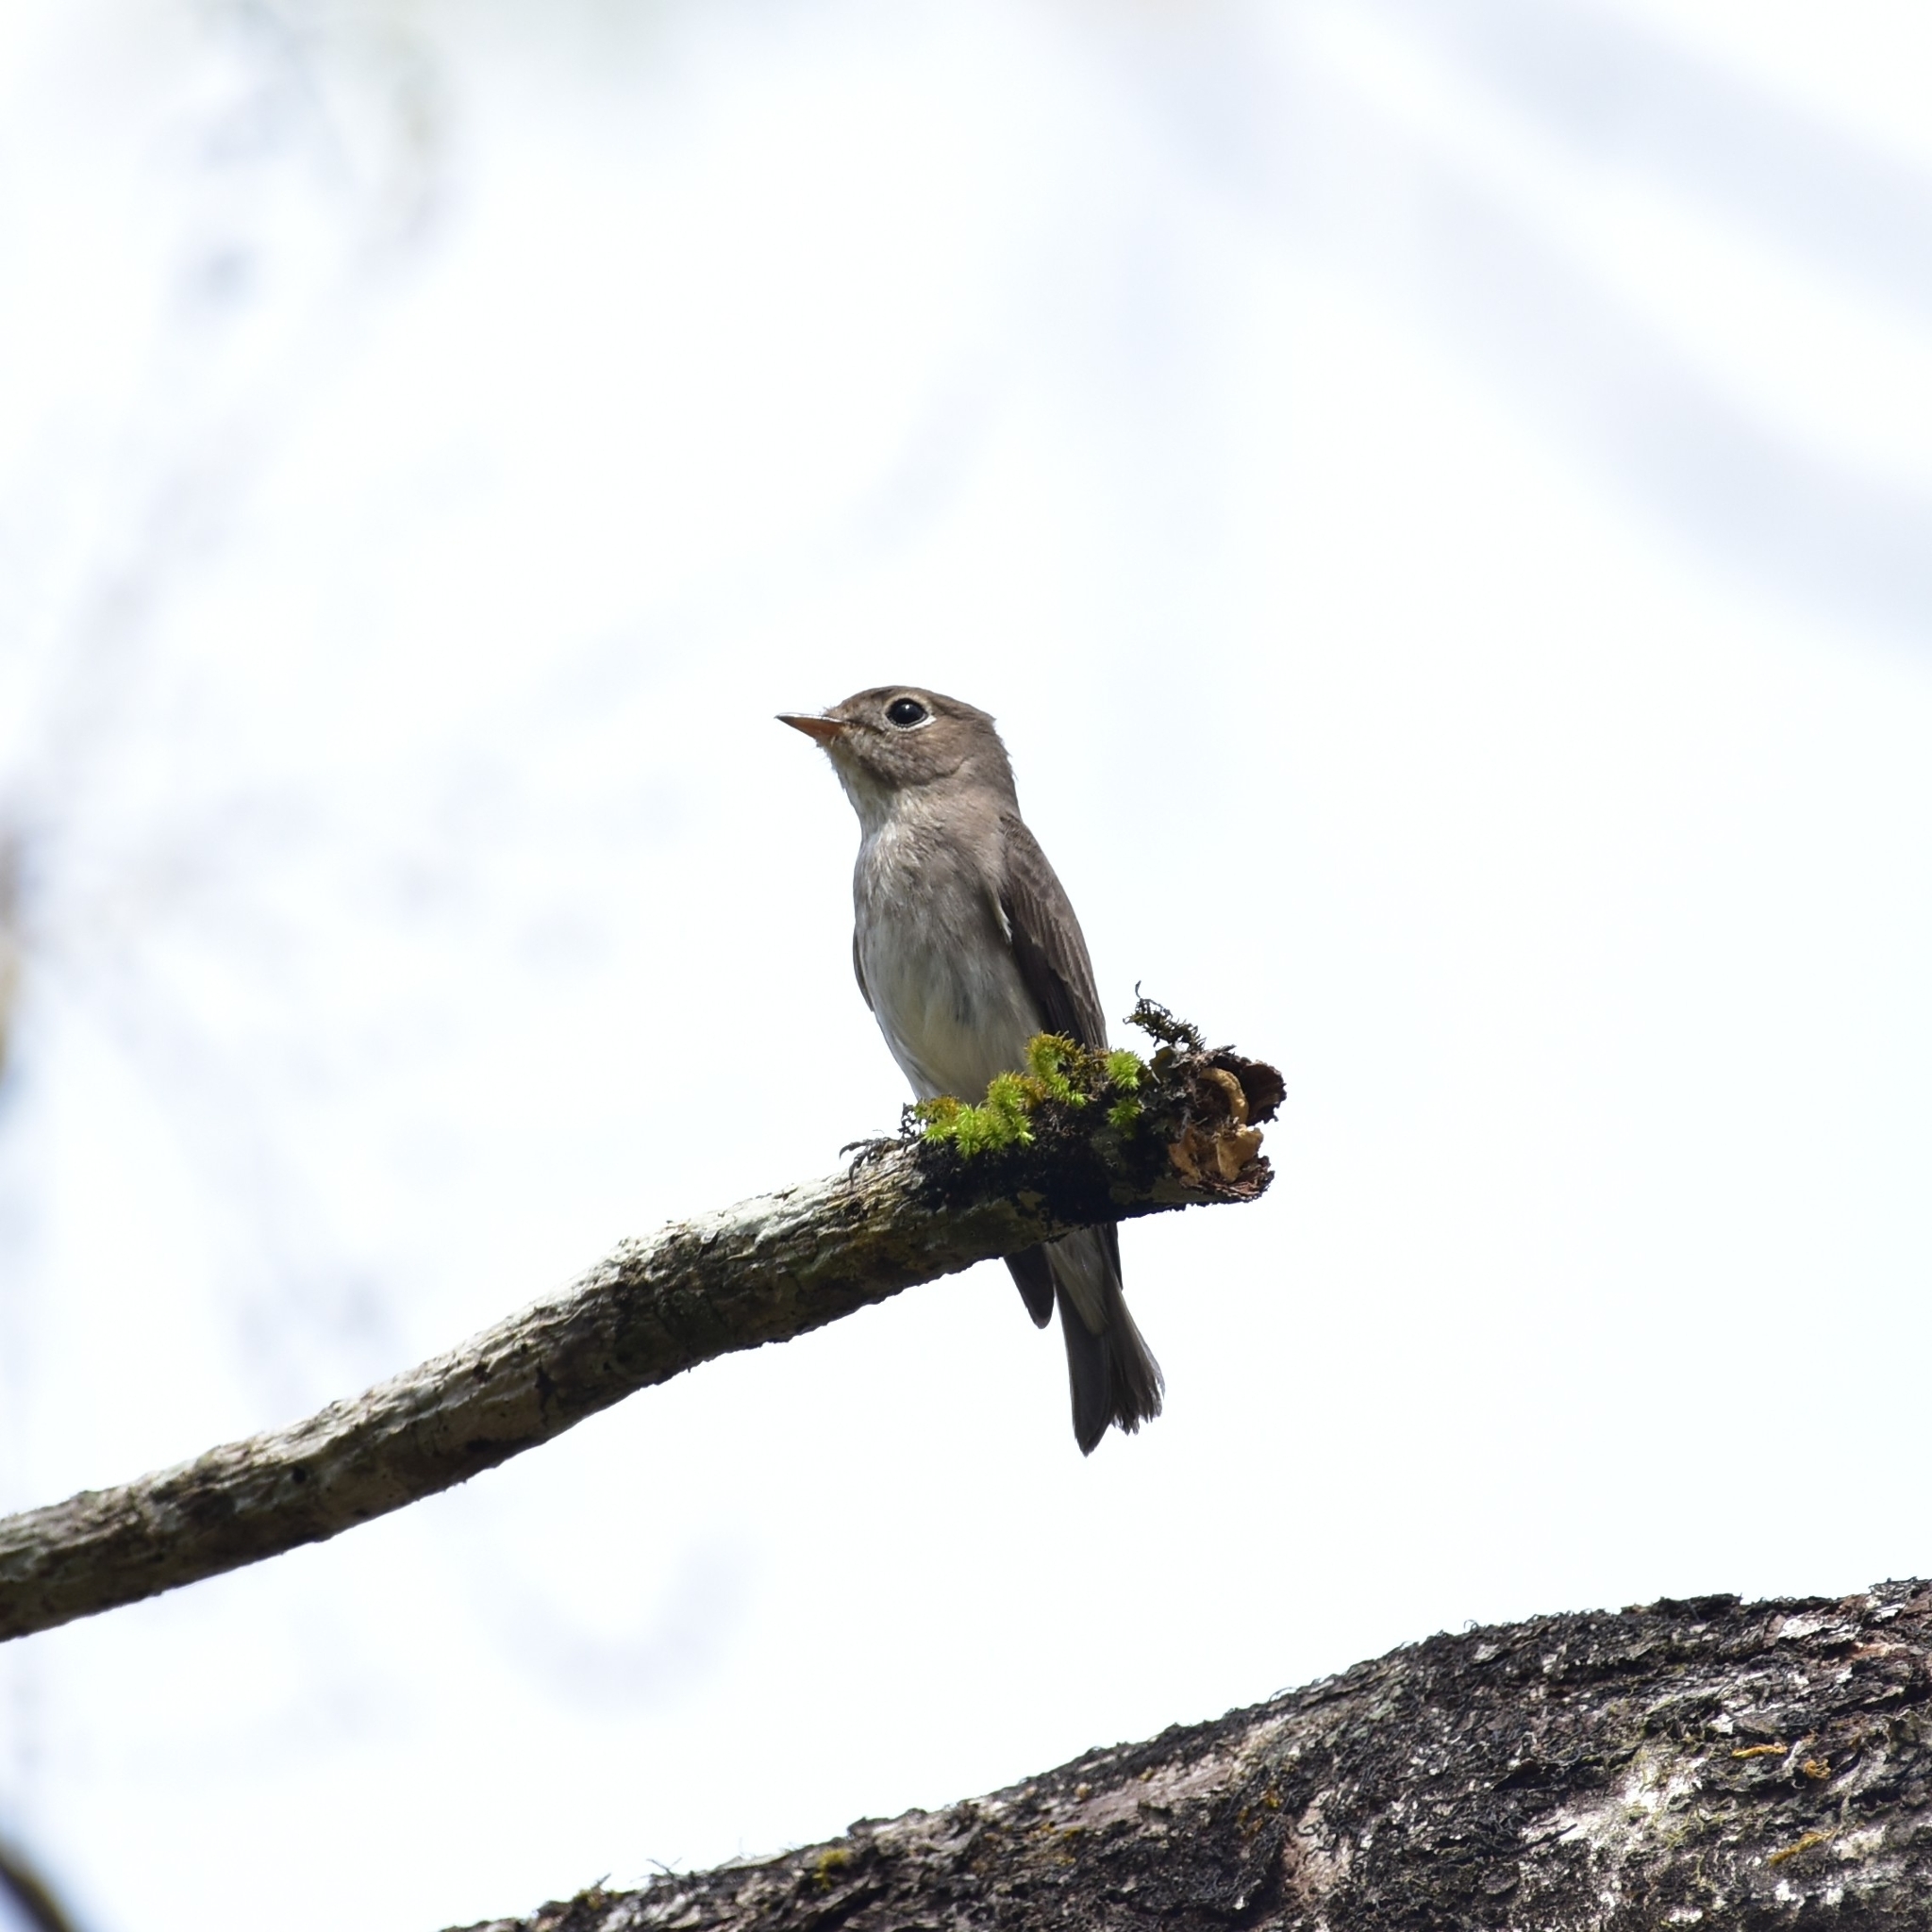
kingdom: Animalia
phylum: Chordata
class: Aves
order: Passeriformes
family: Muscicapidae
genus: Muscicapa
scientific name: Muscicapa latirostris
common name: Asian brown flycatcher
